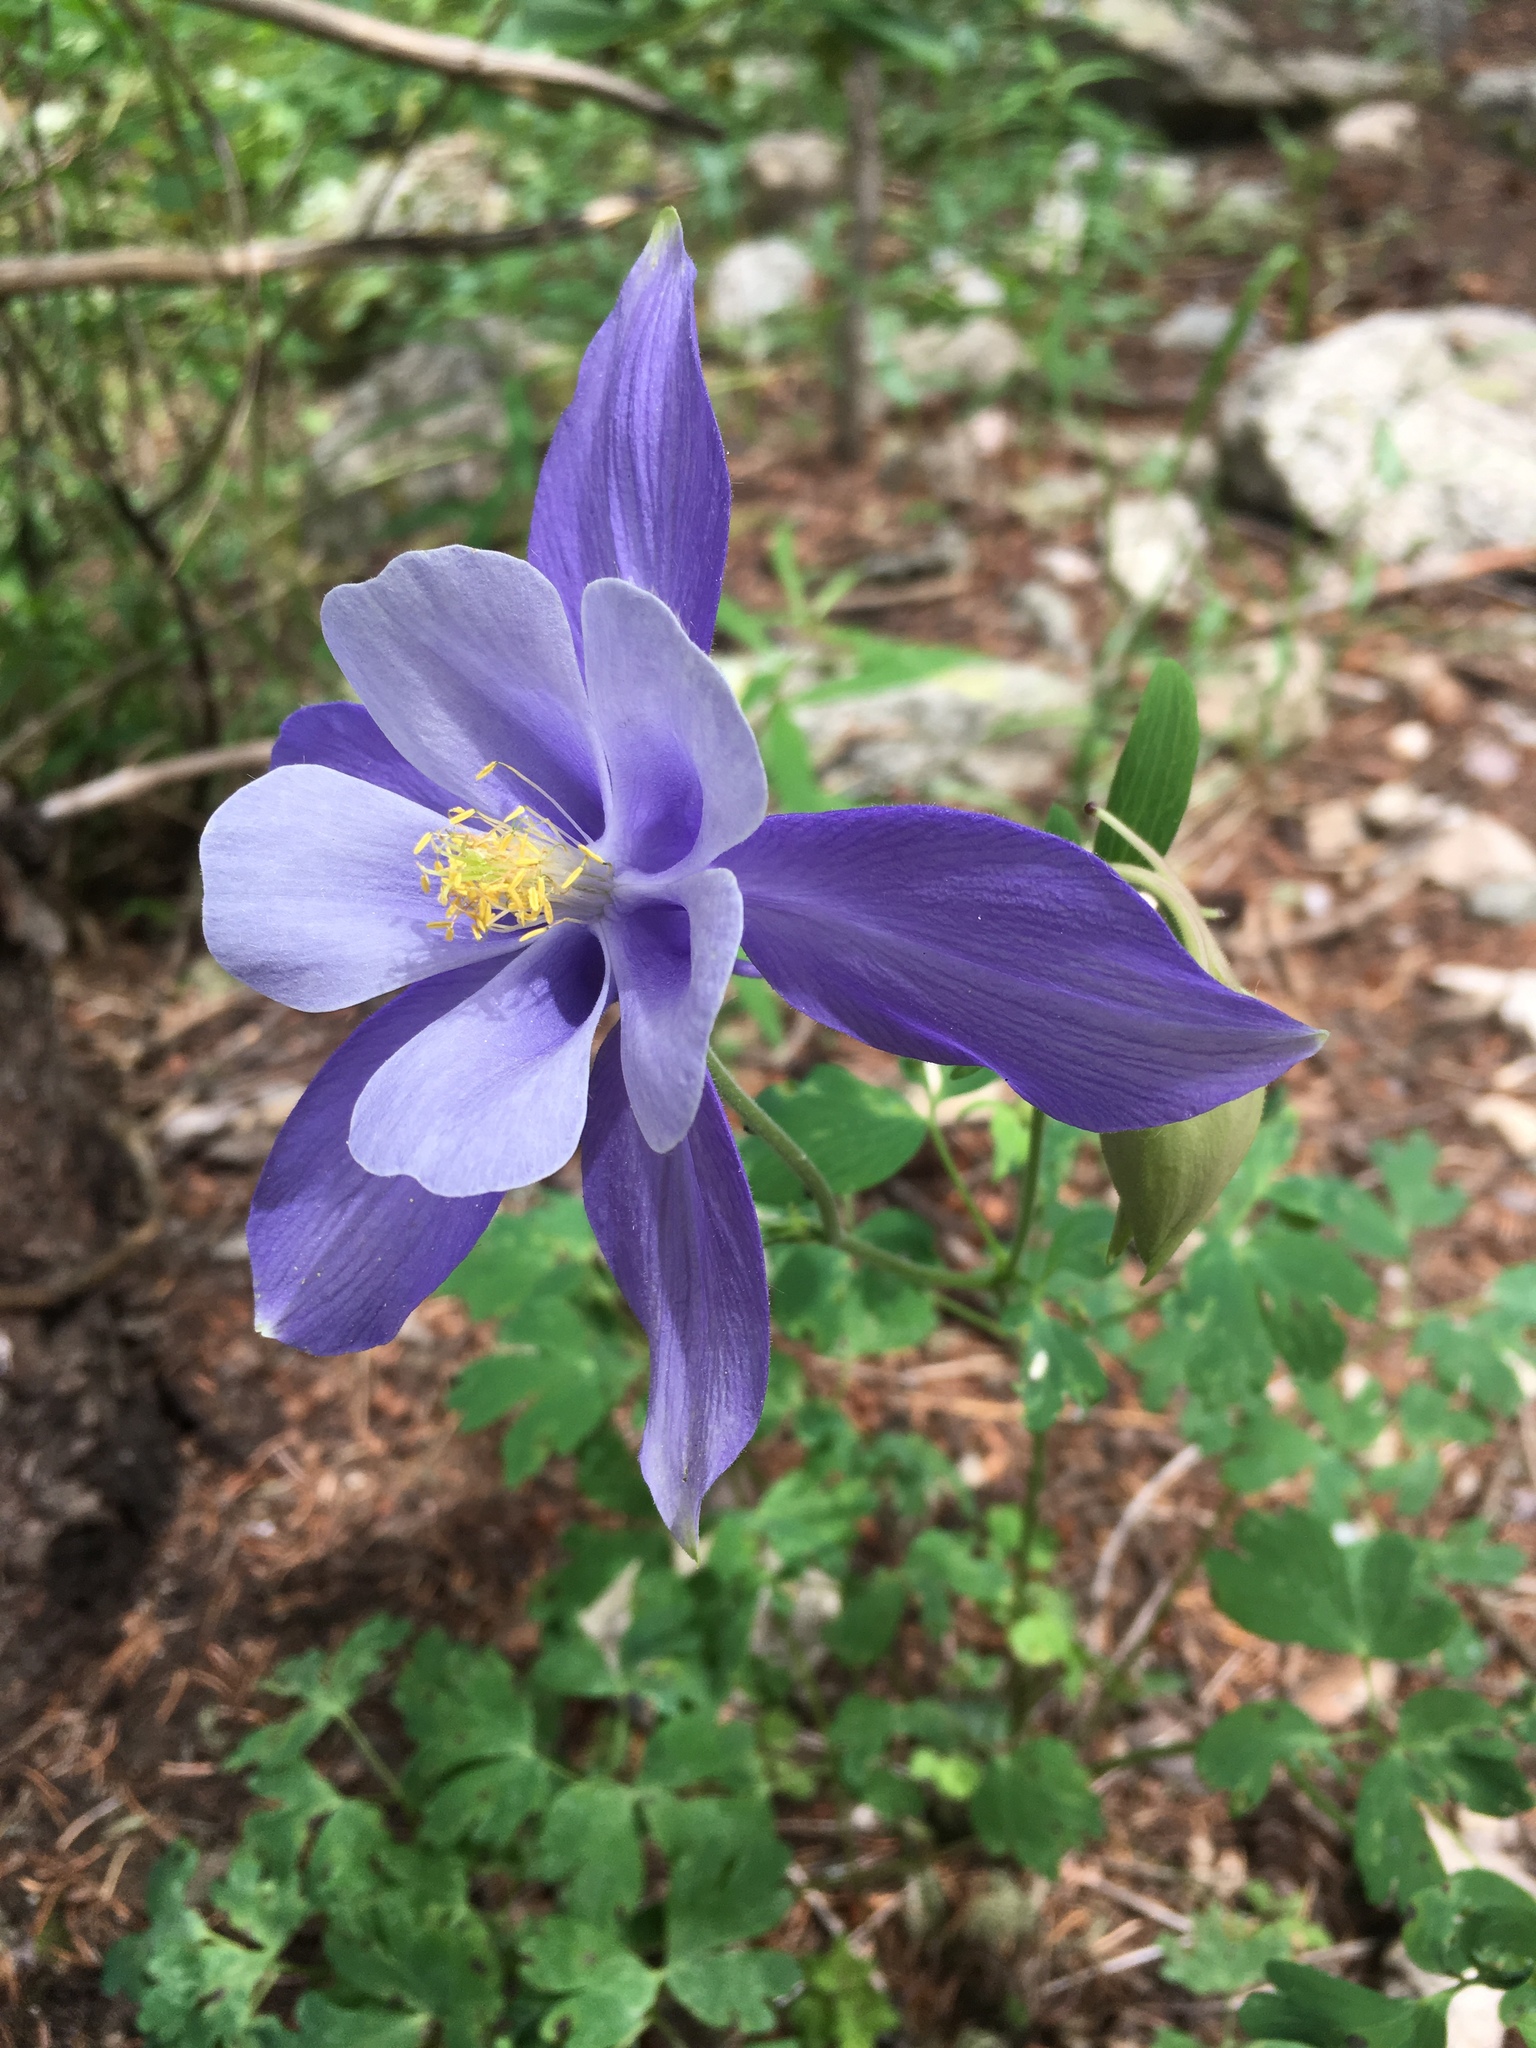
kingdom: Plantae
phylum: Tracheophyta
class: Magnoliopsida
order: Ranunculales
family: Ranunculaceae
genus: Aquilegia
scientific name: Aquilegia coerulea
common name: Rocky mountain columbine
